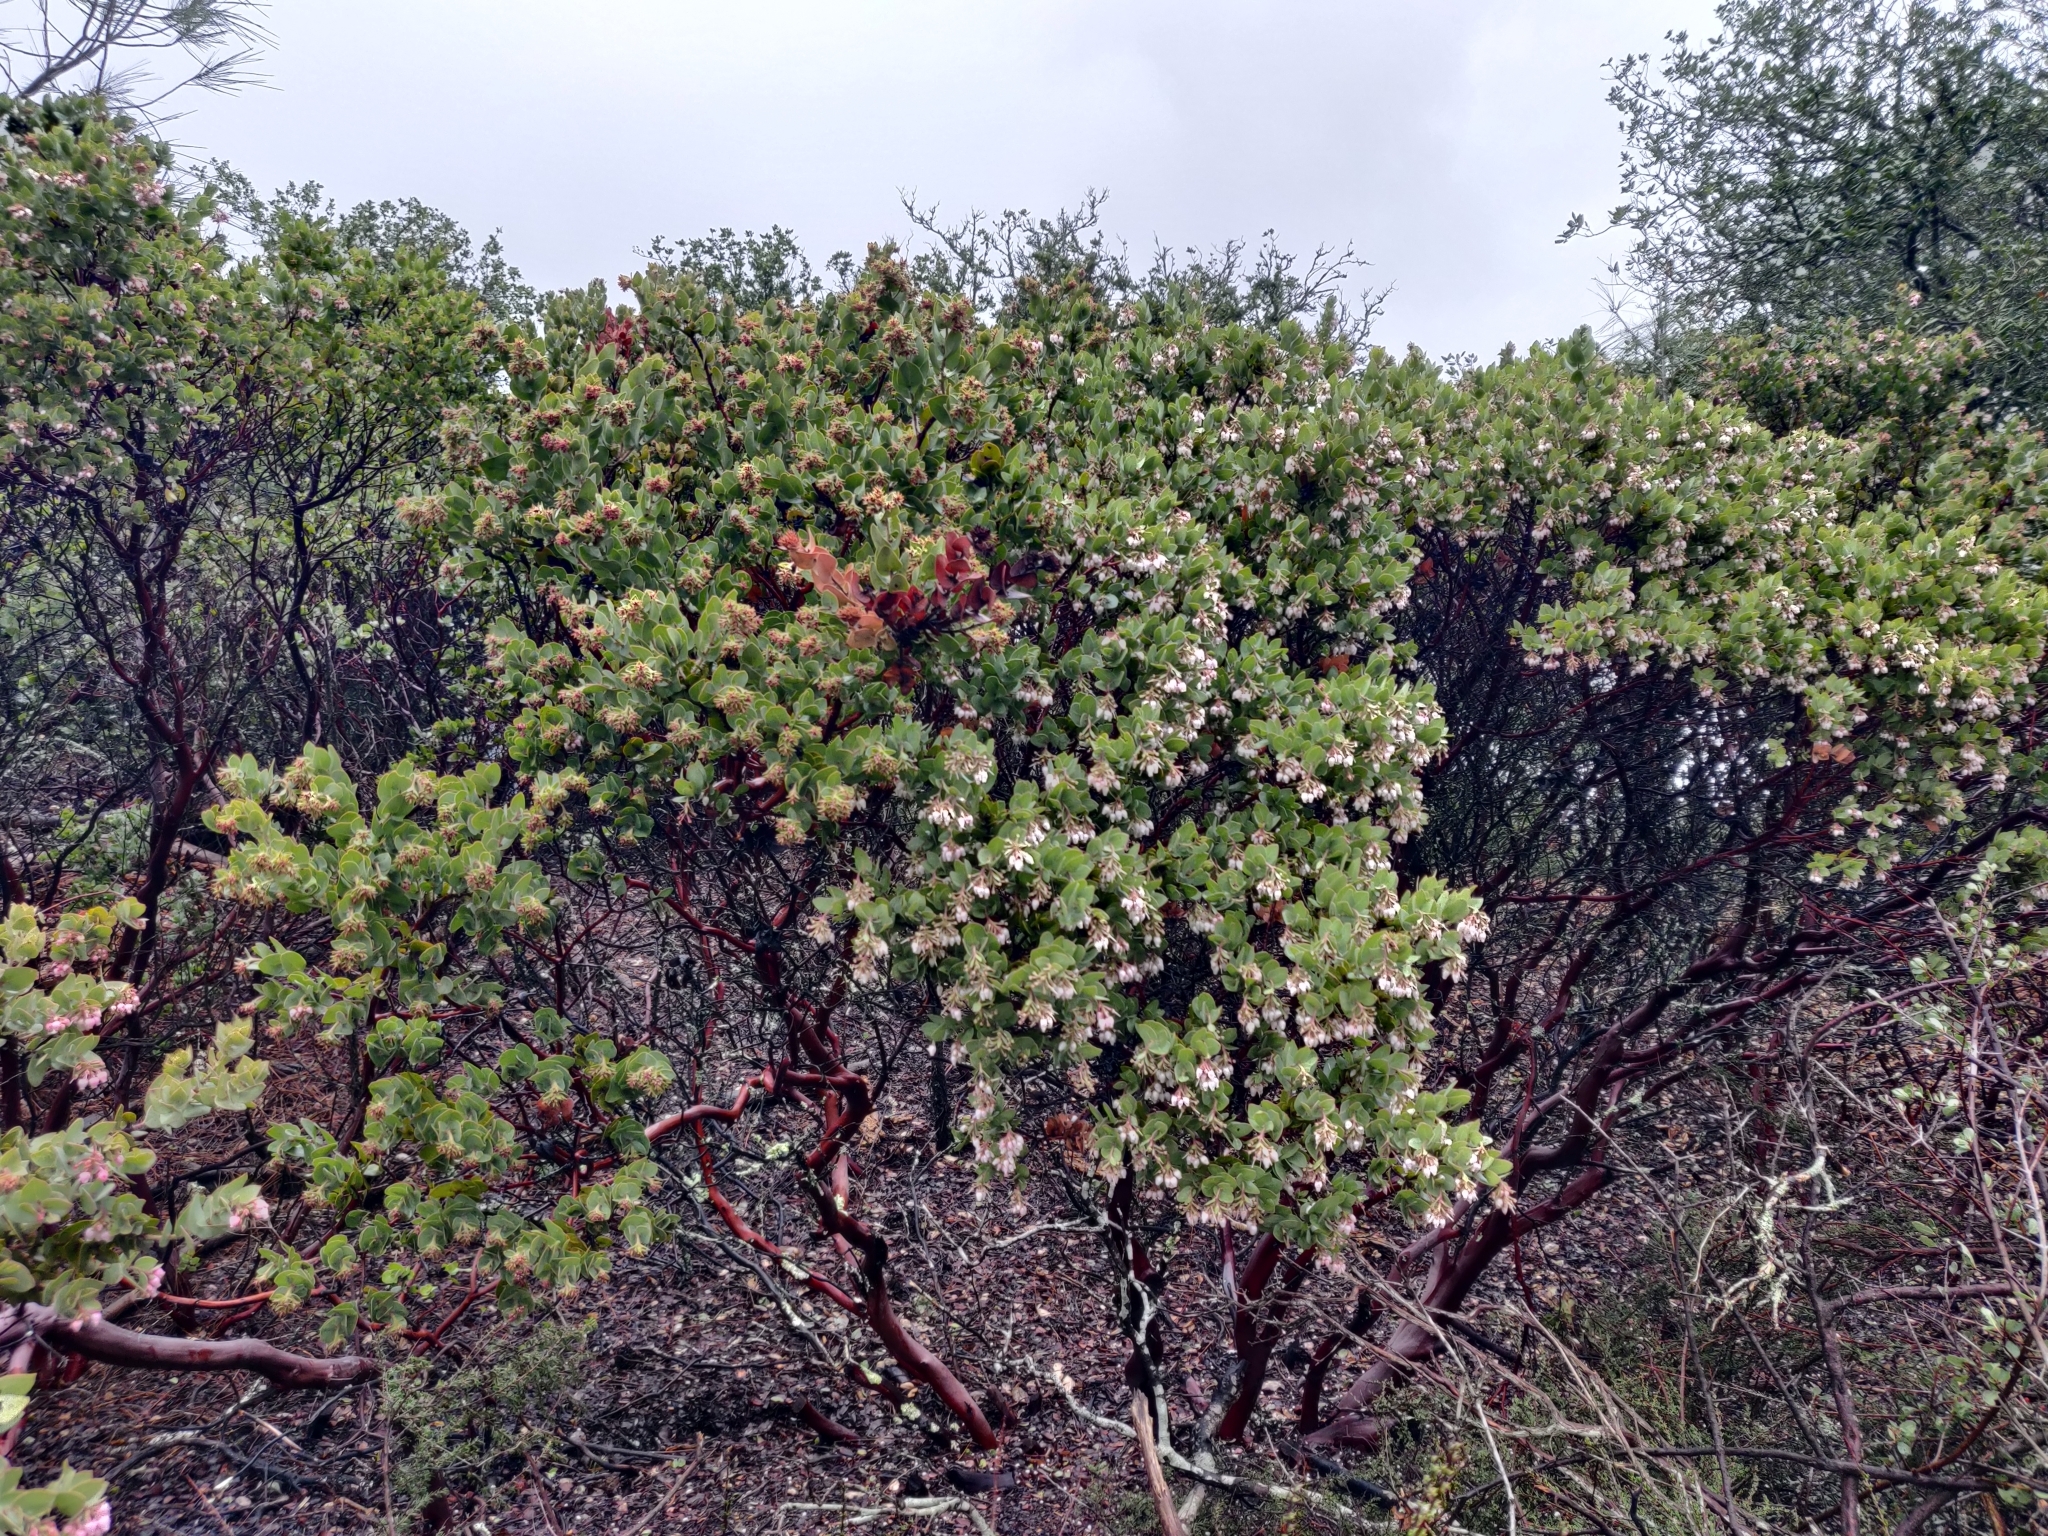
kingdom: Plantae
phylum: Tracheophyta
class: Magnoliopsida
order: Ericales
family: Ericaceae
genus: Arctostaphylos
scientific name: Arctostaphylos auriculata
